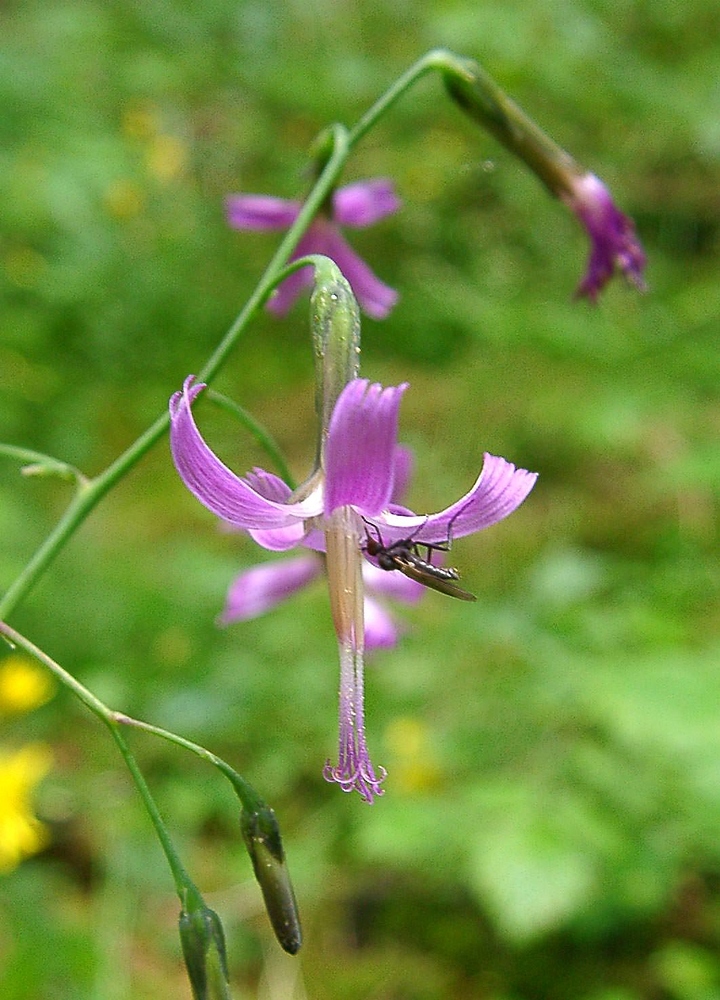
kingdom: Plantae
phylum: Tracheophyta
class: Magnoliopsida
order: Asterales
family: Asteraceae
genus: Prenanthes
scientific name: Prenanthes purpurea
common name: Purple lettuce
